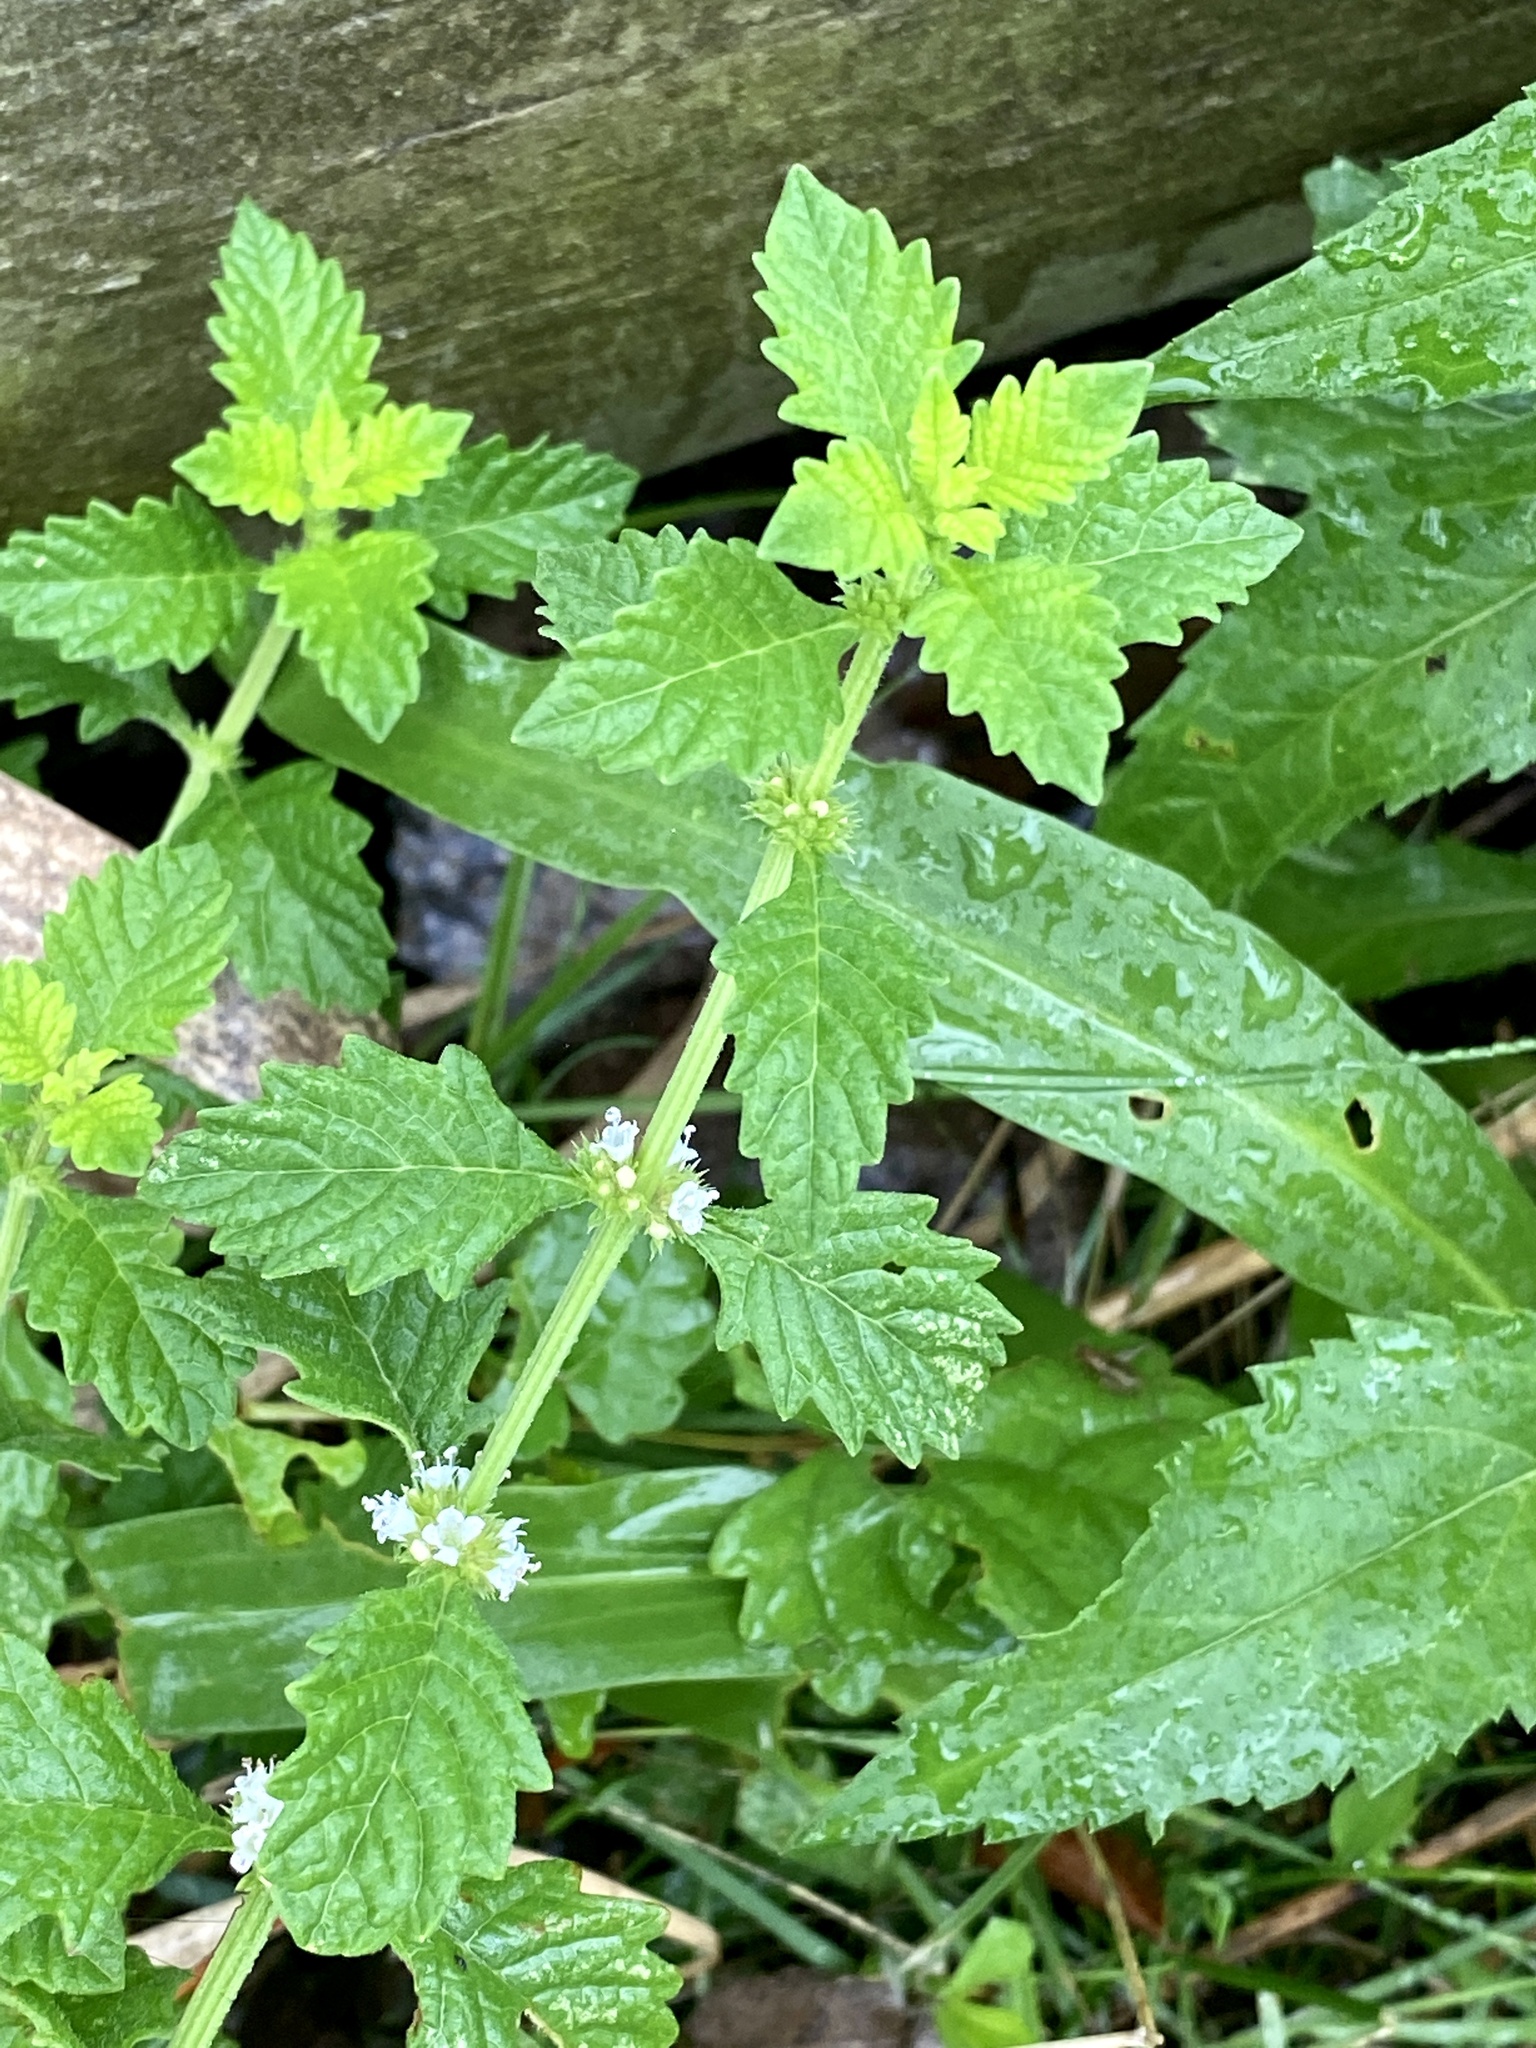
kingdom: Plantae
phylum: Tracheophyta
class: Magnoliopsida
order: Lamiales
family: Lamiaceae
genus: Lycopus
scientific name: Lycopus europaeus
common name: European bugleweed
